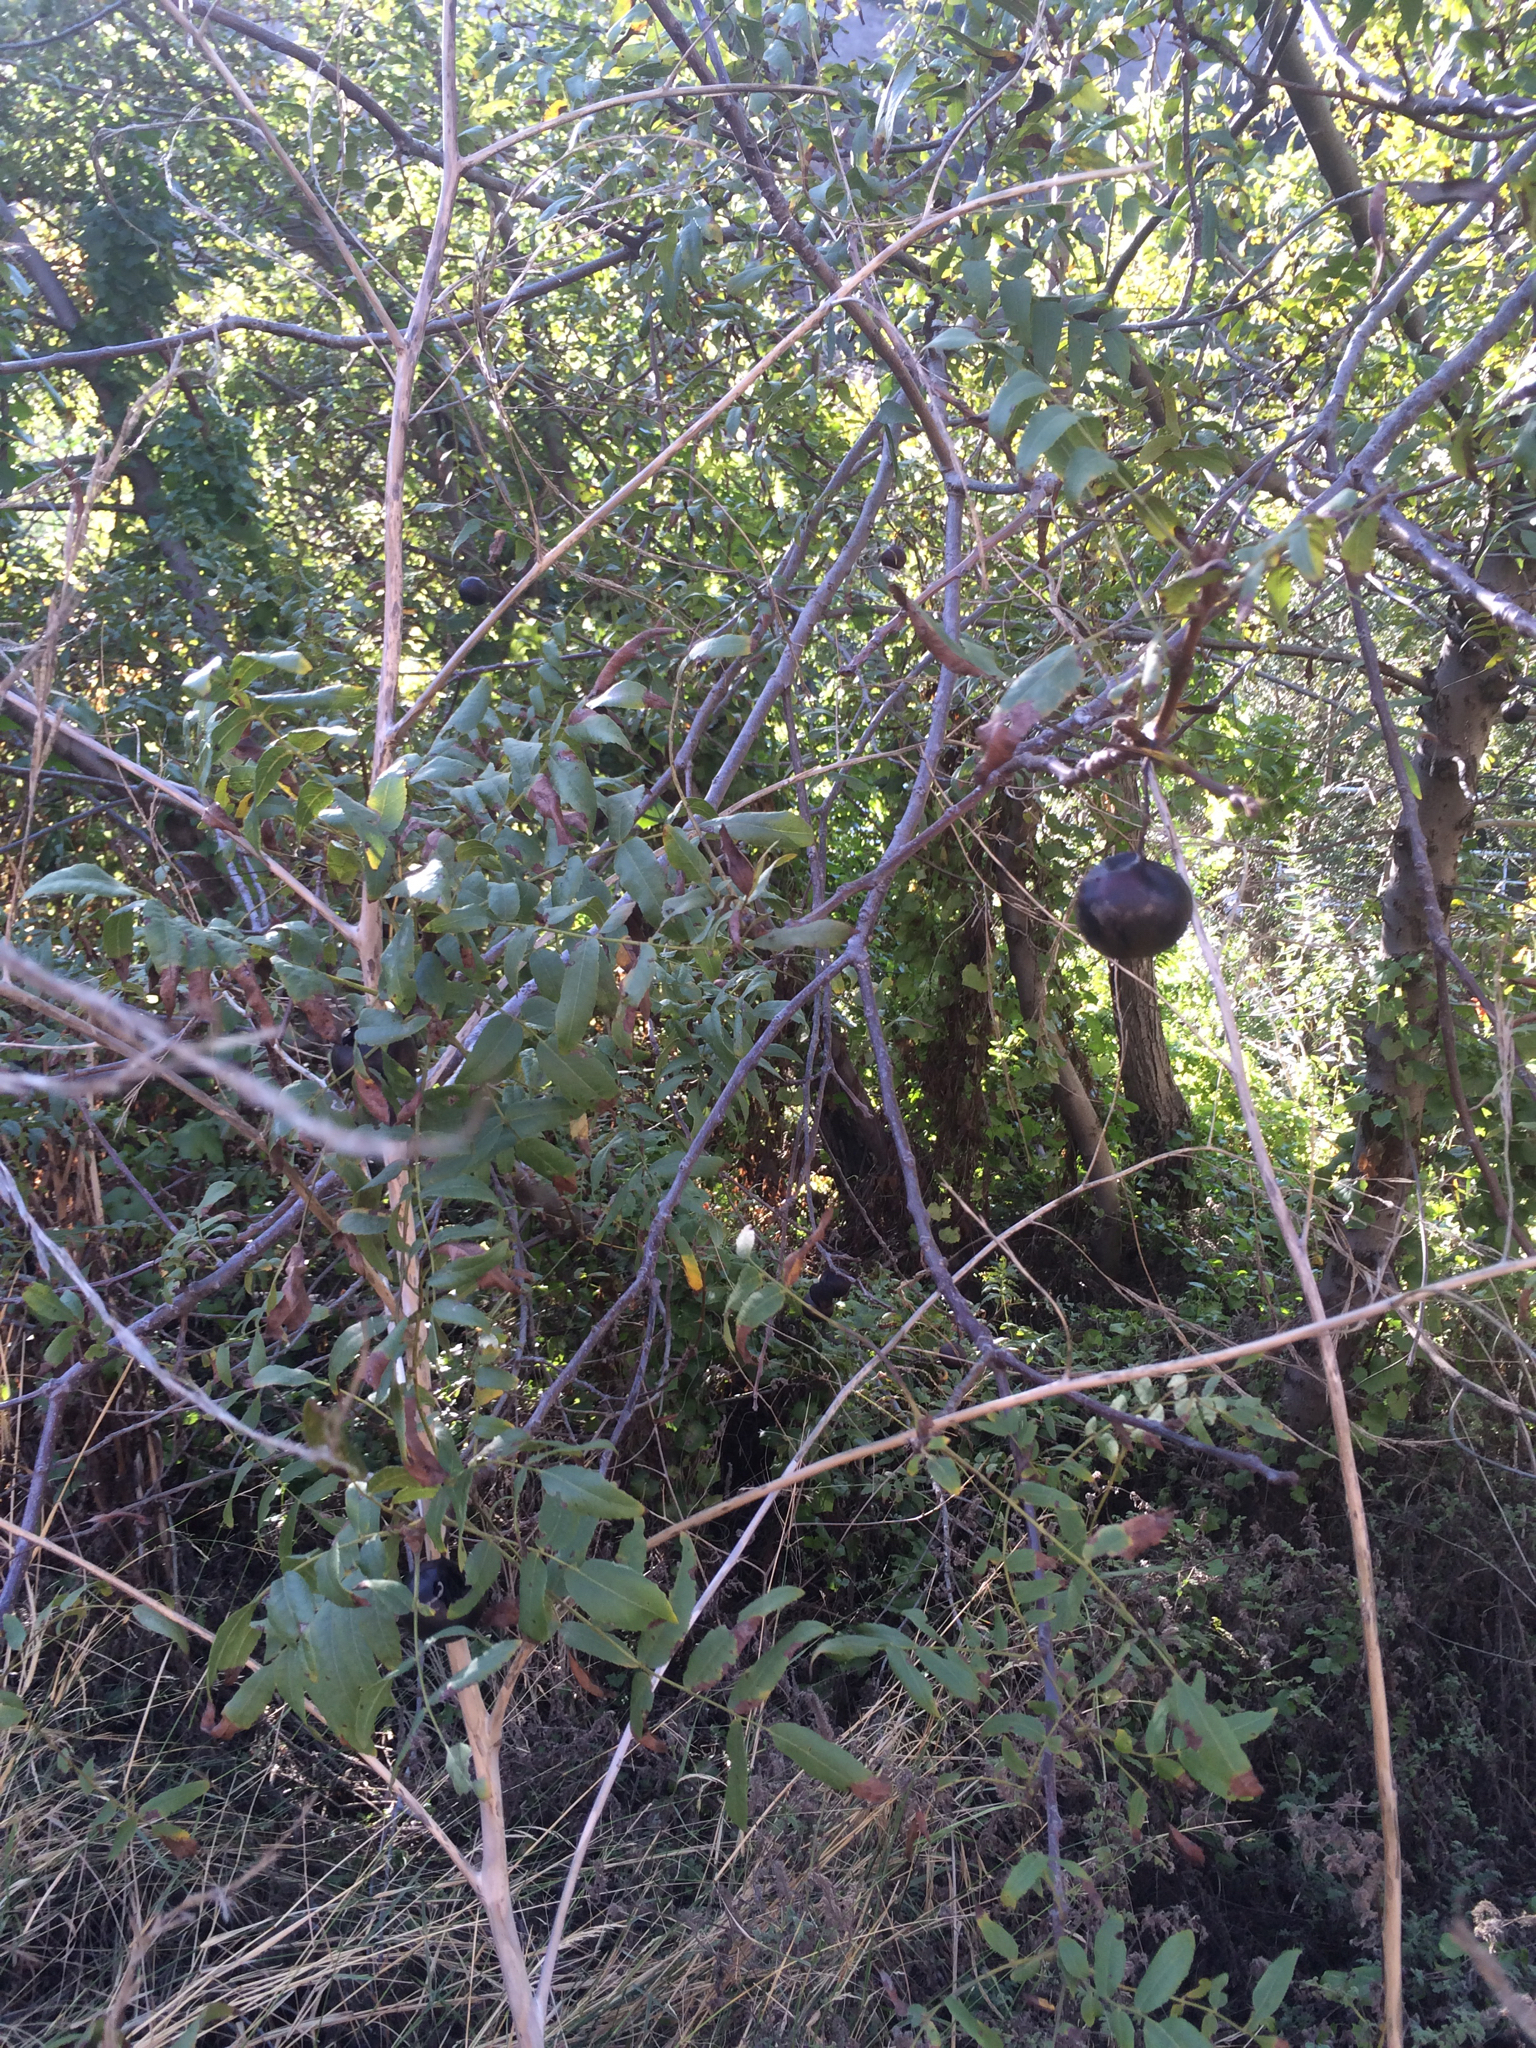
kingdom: Plantae
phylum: Tracheophyta
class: Magnoliopsida
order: Fagales
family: Juglandaceae
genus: Juglans
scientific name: Juglans californica
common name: Southern california black walnut
